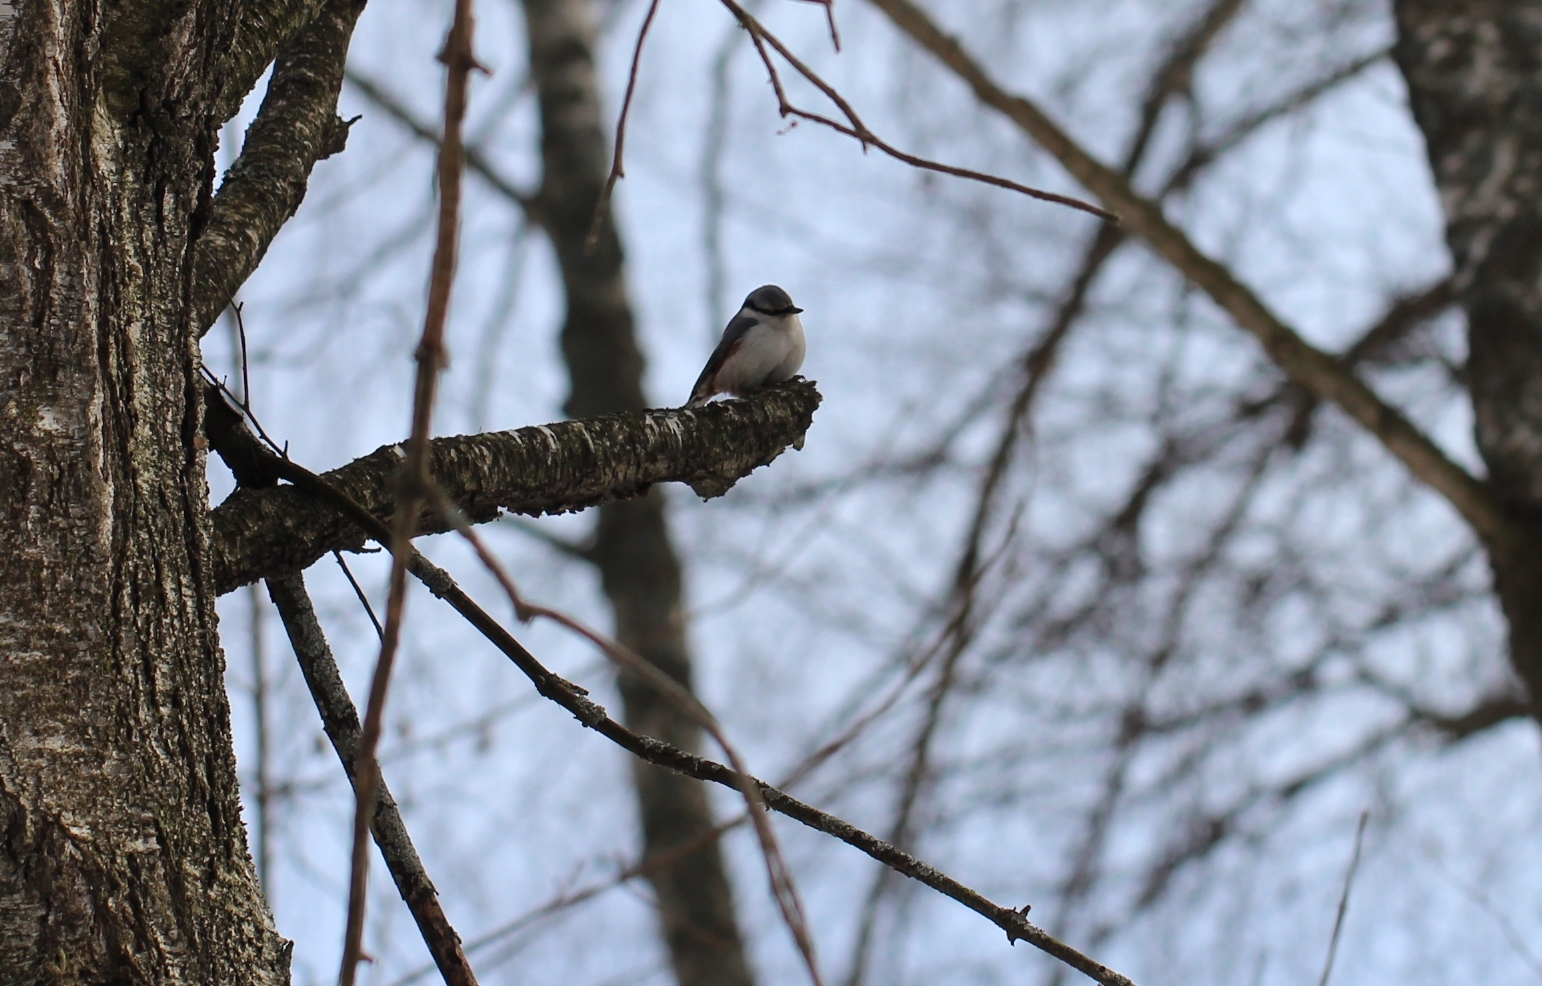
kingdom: Animalia
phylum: Chordata
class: Aves
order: Passeriformes
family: Sittidae
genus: Sitta
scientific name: Sitta europaea
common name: Eurasian nuthatch
